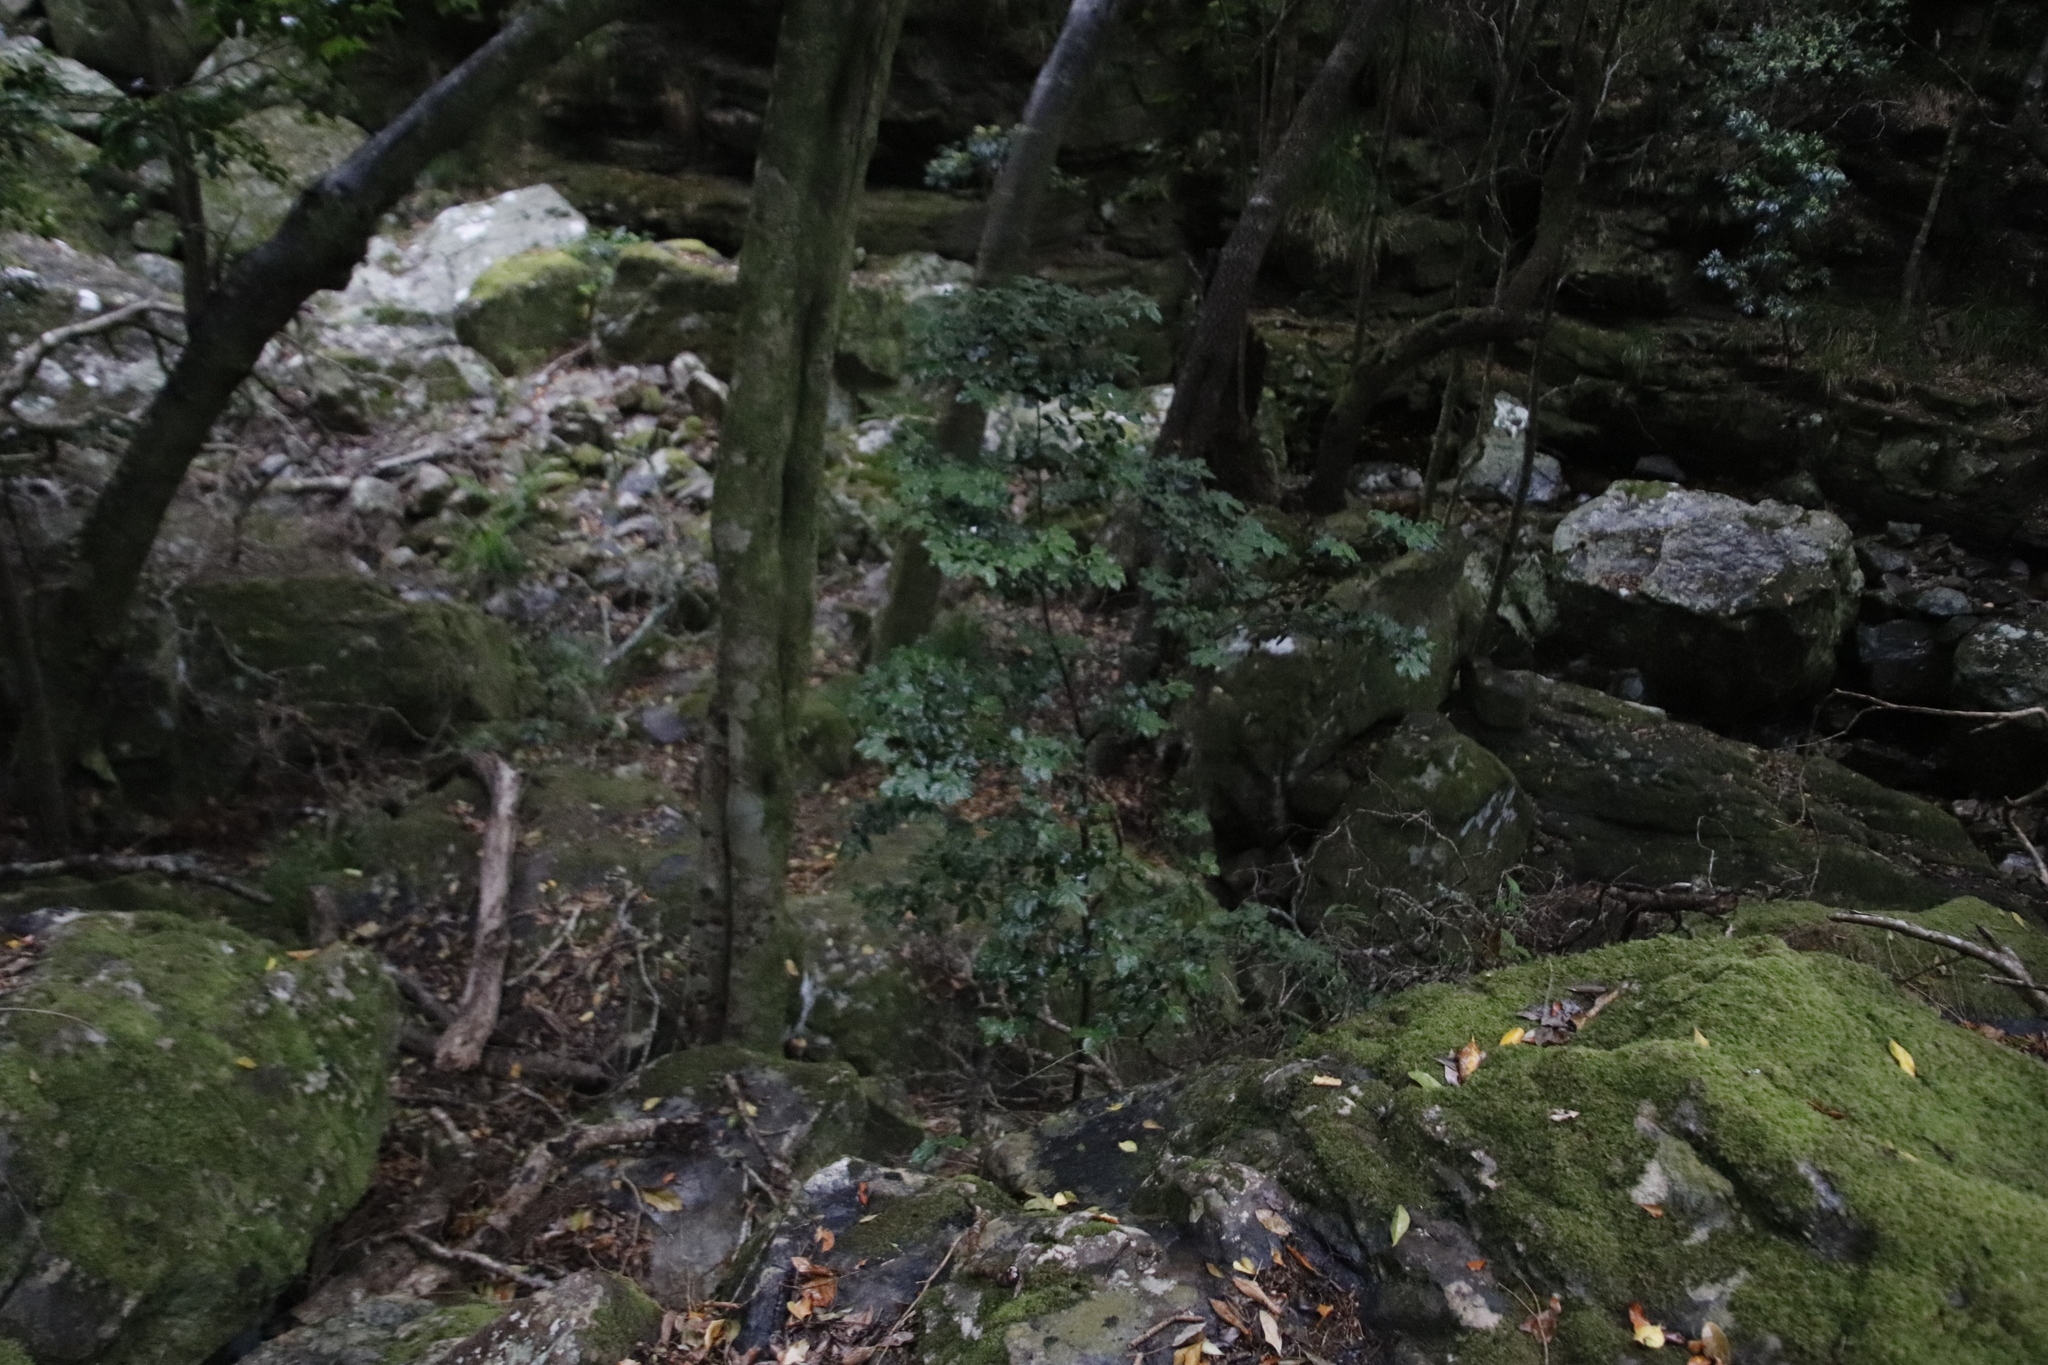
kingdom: Plantae
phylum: Tracheophyta
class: Magnoliopsida
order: Ericales
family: Ebenaceae
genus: Diospyros
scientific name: Diospyros whyteana
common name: Bladder-nut
